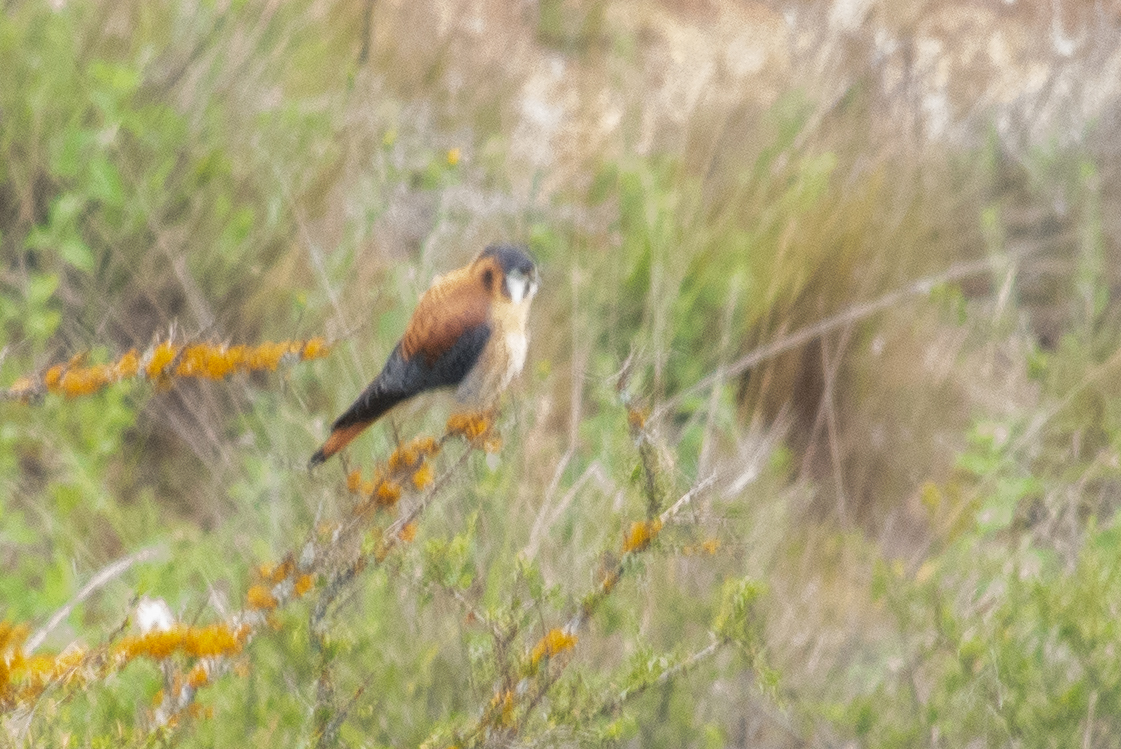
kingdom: Animalia
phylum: Chordata
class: Aves
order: Falconiformes
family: Falconidae
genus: Falco
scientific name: Falco sparverius
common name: American kestrel
